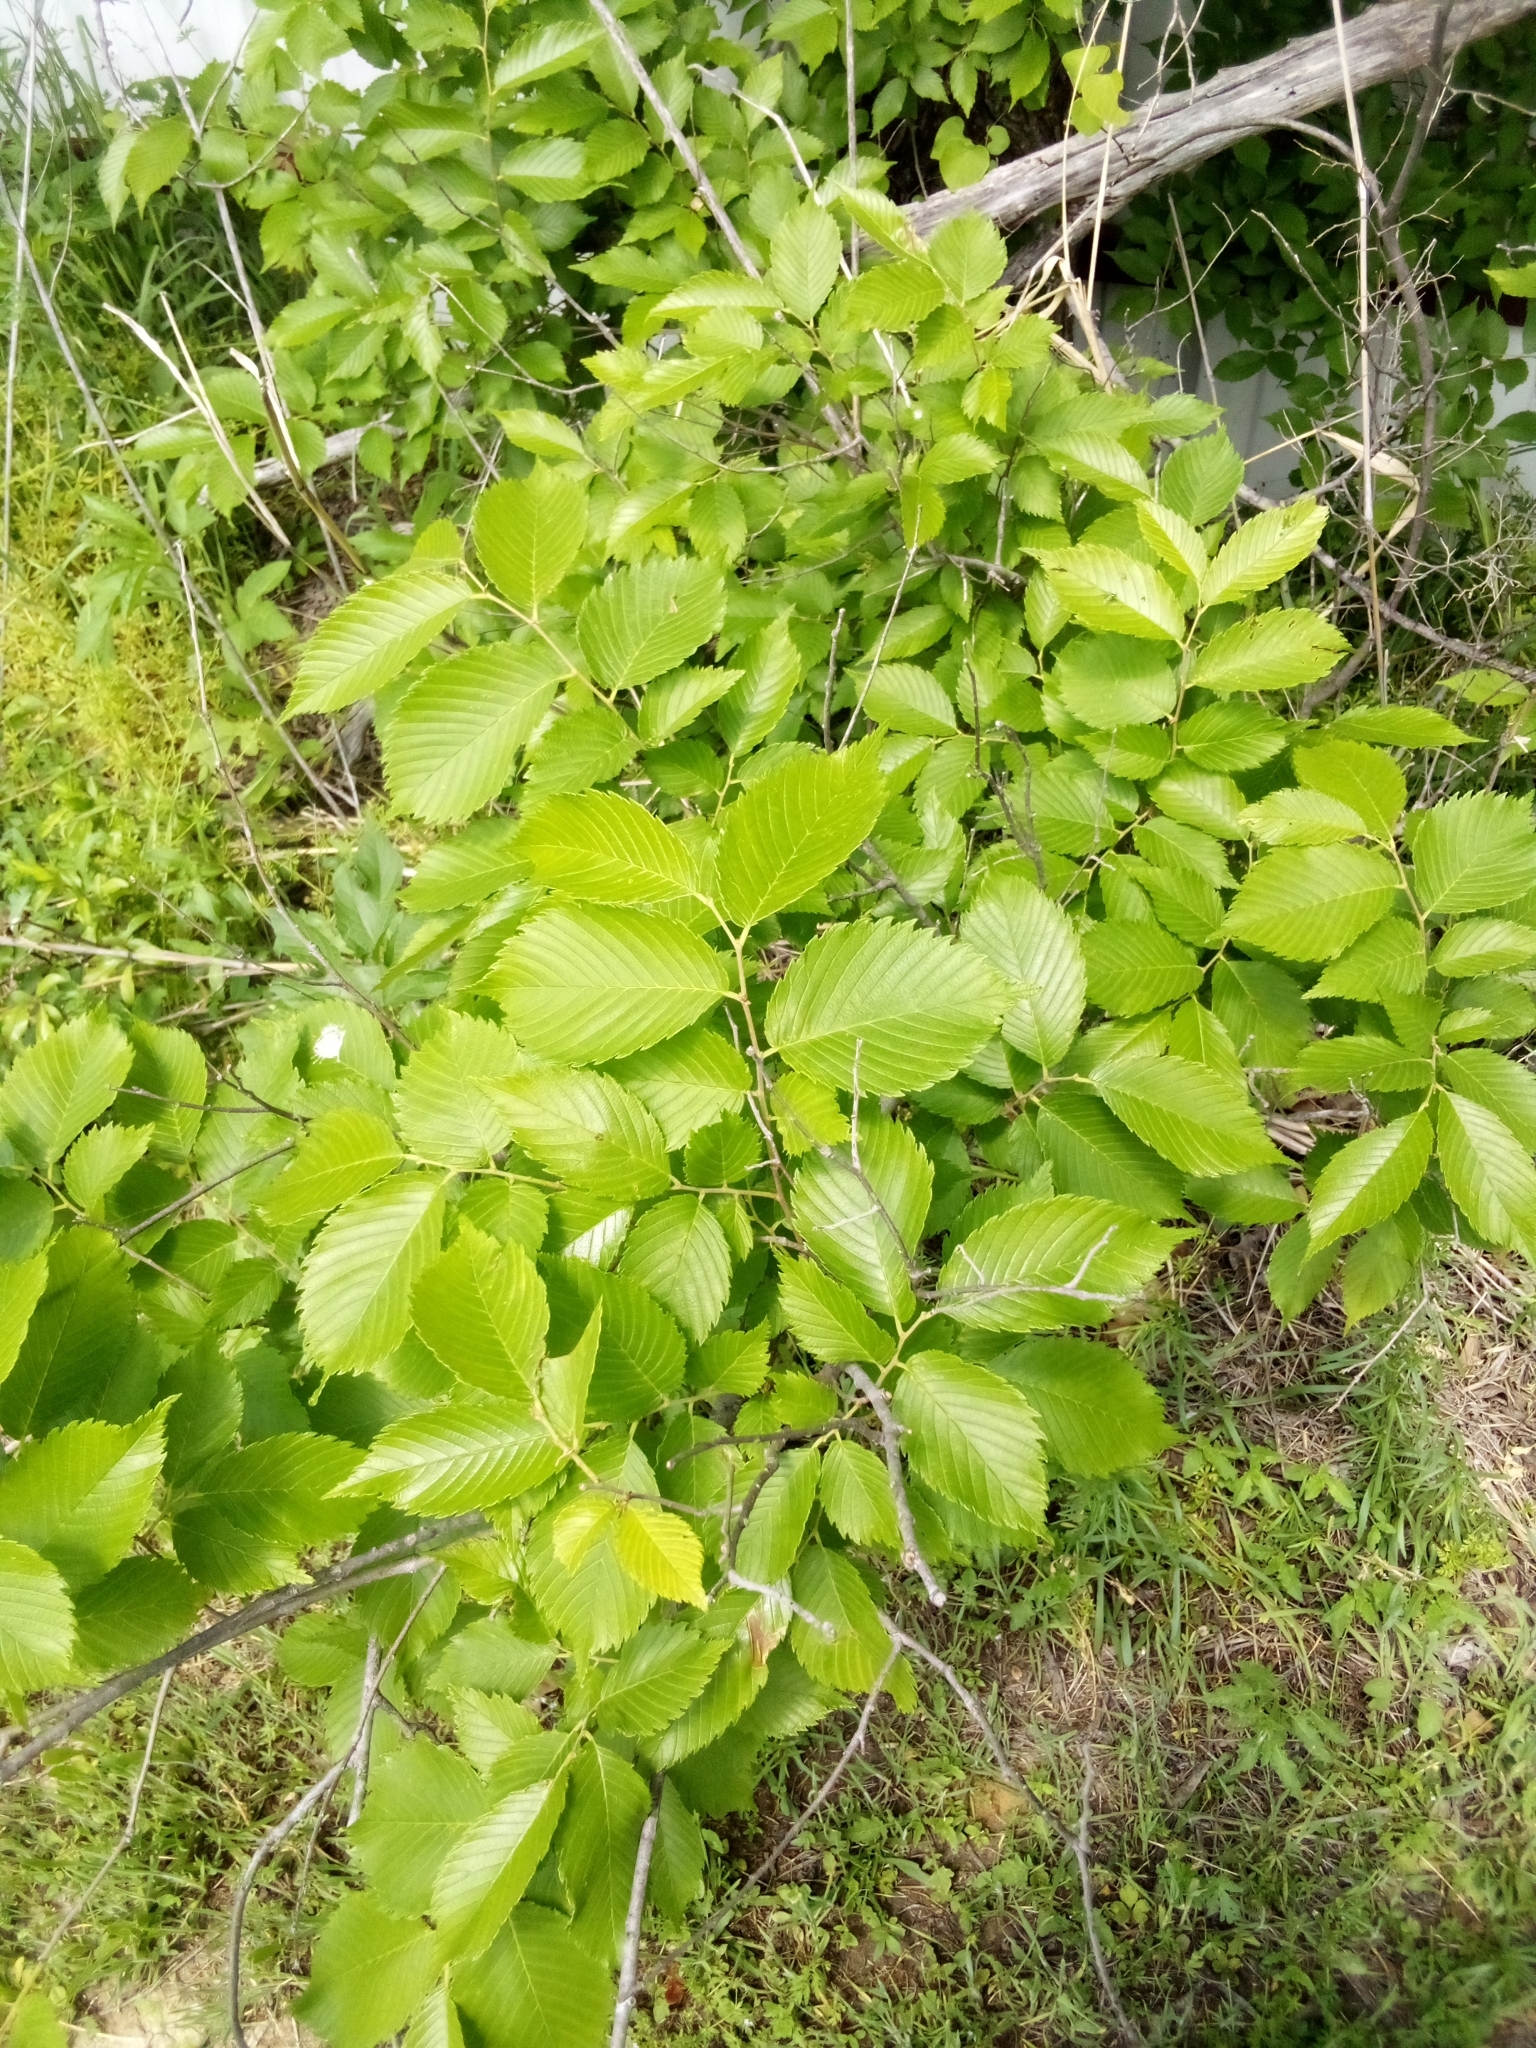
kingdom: Plantae
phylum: Tracheophyta
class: Magnoliopsida
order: Rosales
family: Ulmaceae
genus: Ulmus
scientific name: Ulmus americana
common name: American elm
